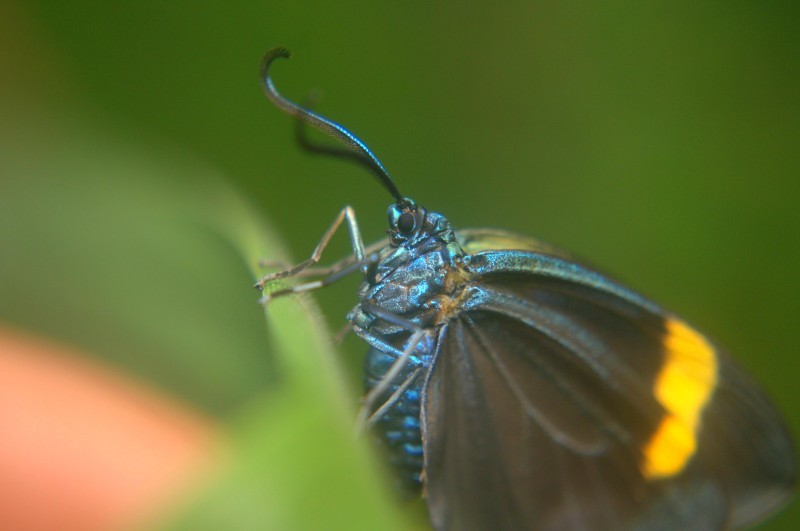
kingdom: Animalia
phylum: Arthropoda
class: Insecta
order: Lepidoptera
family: Zygaenidae
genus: Pidorus
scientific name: Pidorus circe
